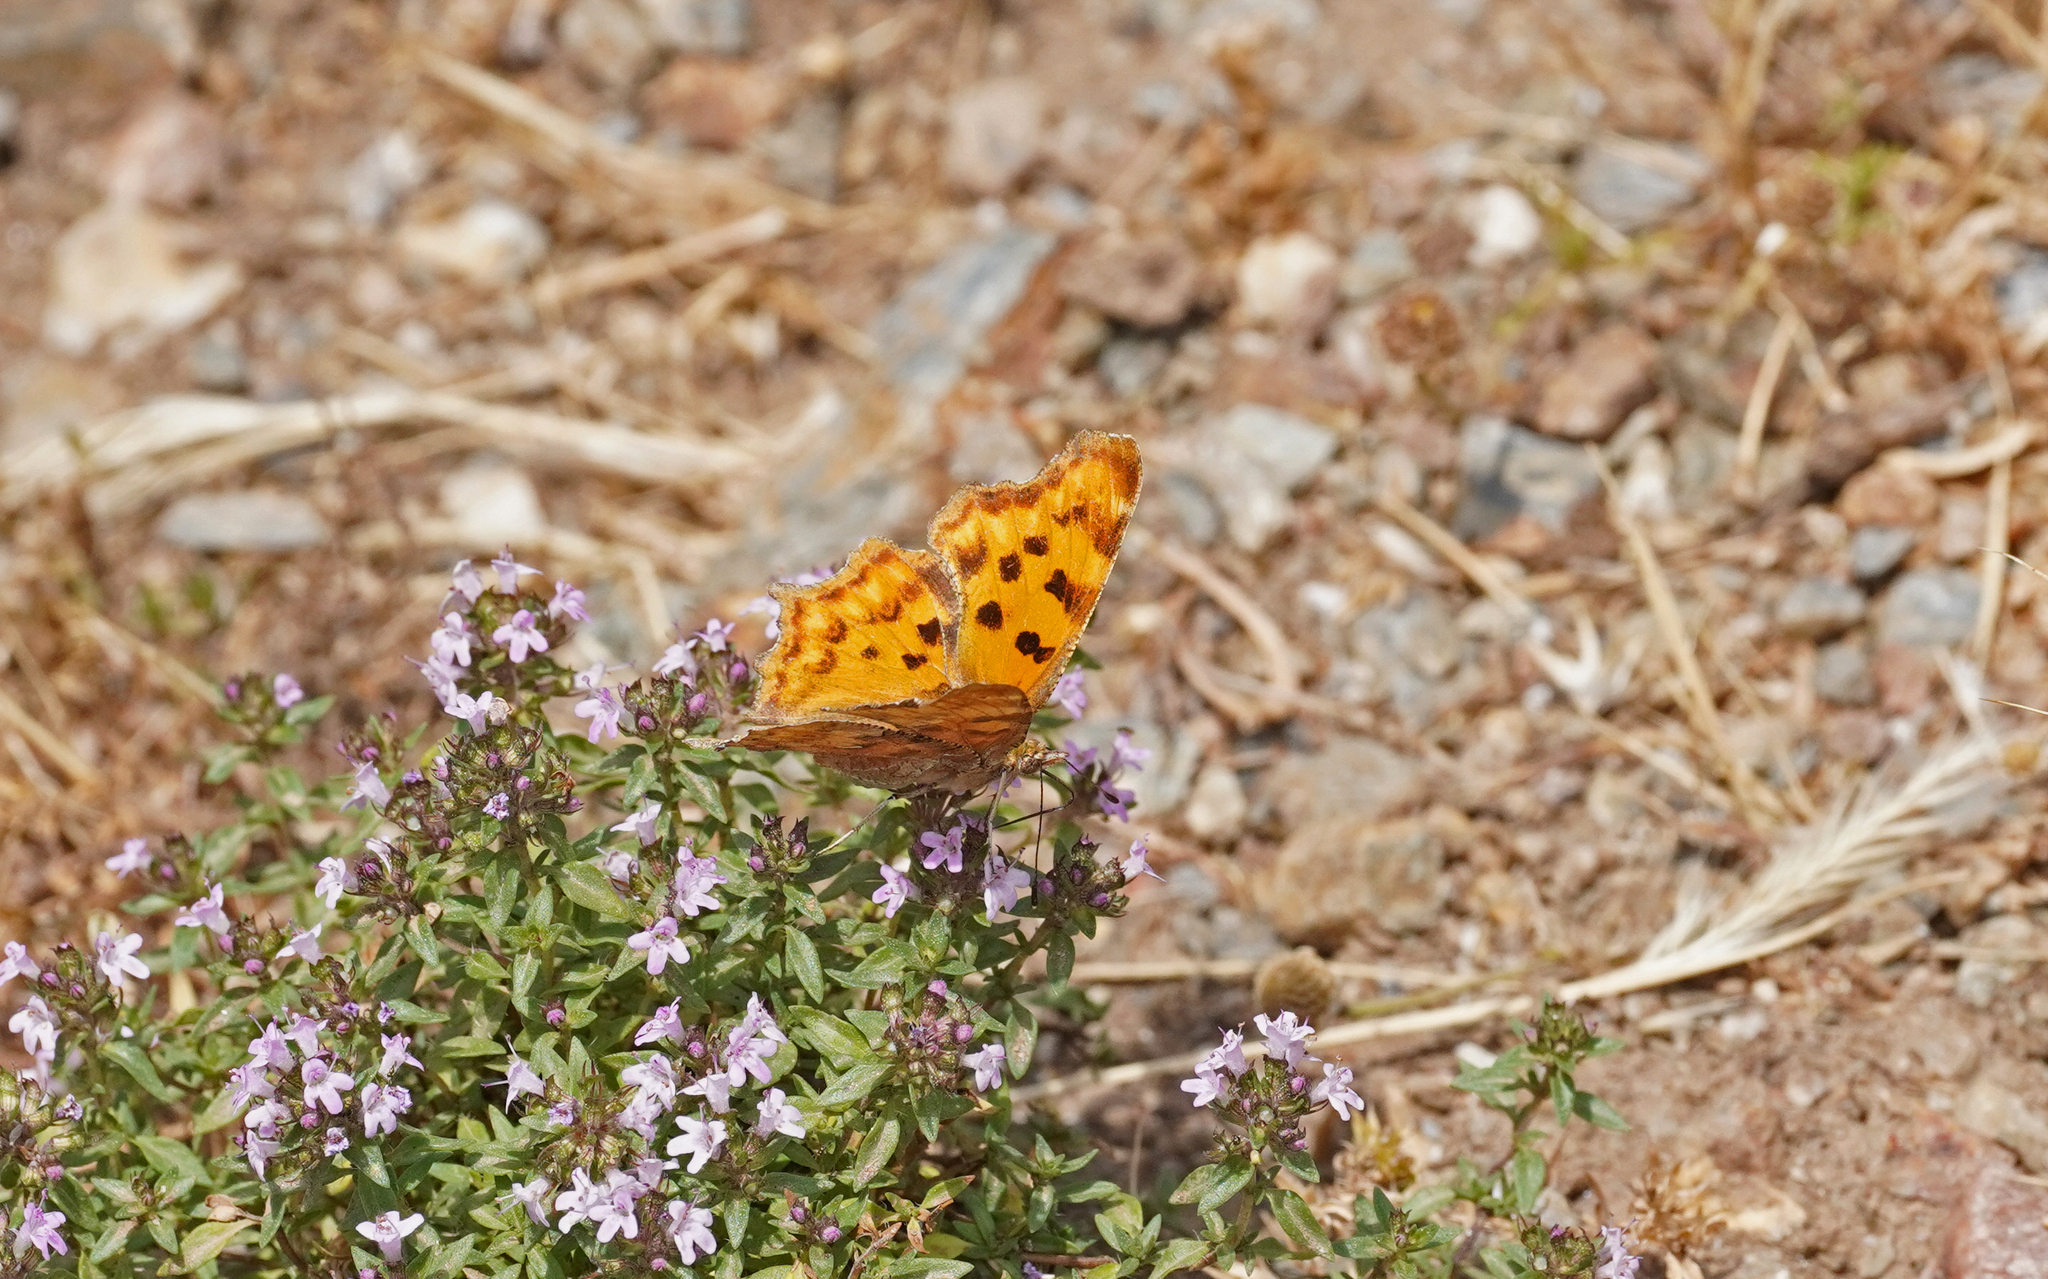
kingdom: Animalia
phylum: Arthropoda
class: Insecta
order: Lepidoptera
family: Nymphalidae
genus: Polygonia
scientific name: Polygonia c-album
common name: Comma
